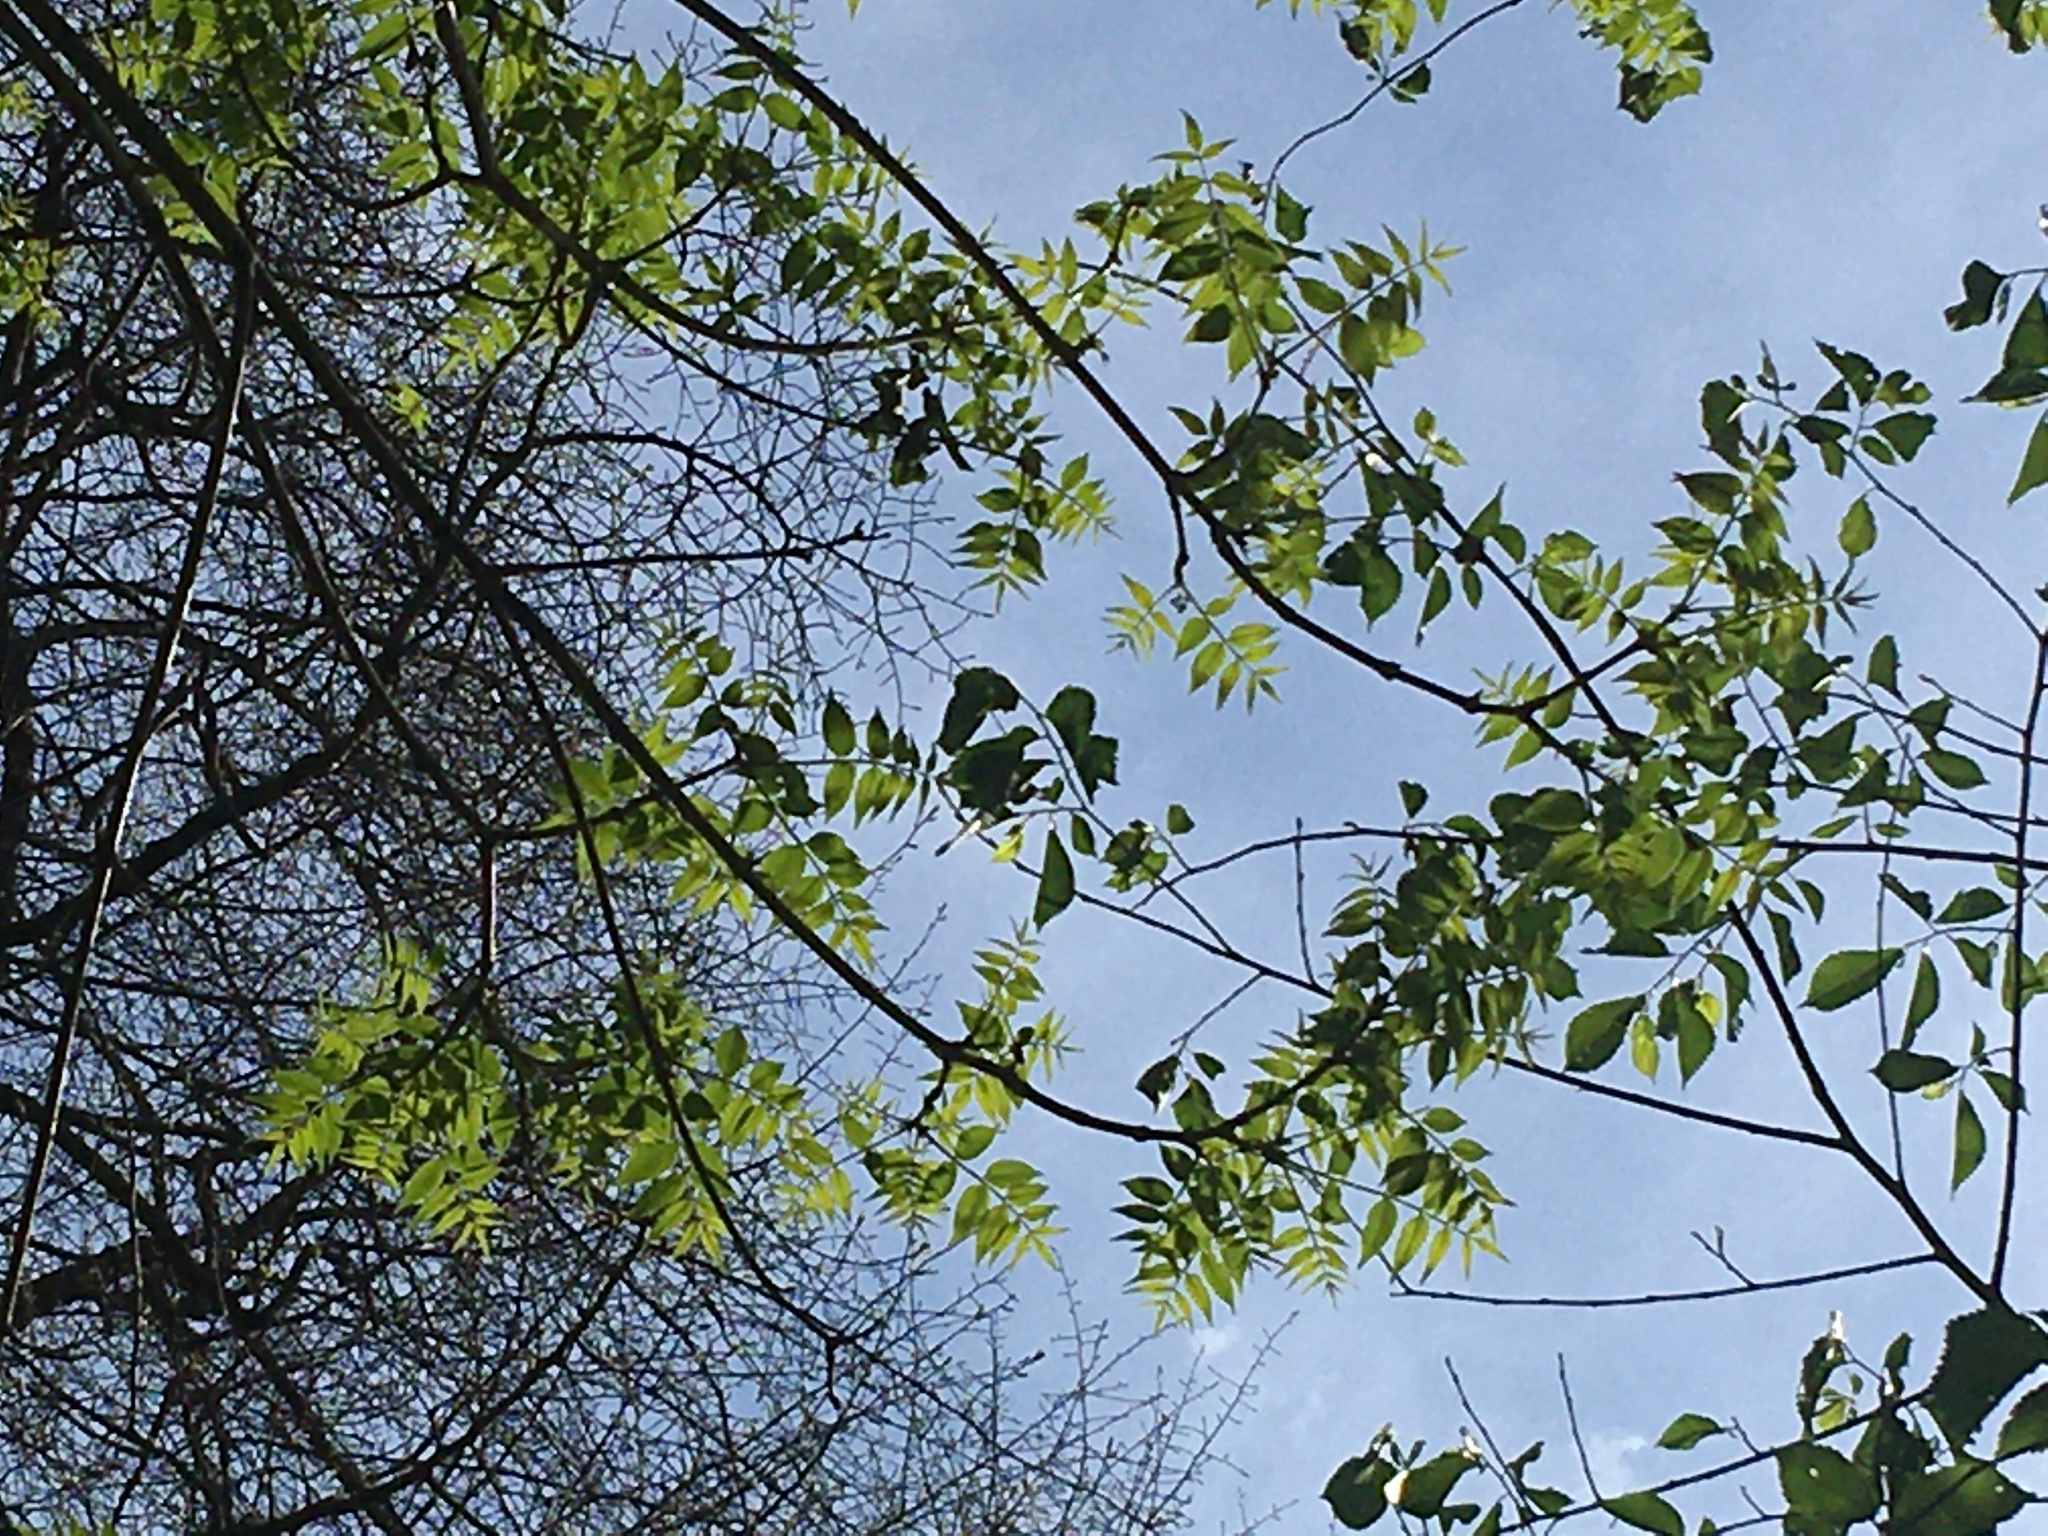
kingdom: Plantae
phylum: Tracheophyta
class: Magnoliopsida
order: Sapindales
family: Rutaceae
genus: Phellodendron
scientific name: Phellodendron amurense
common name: Amur corktree
